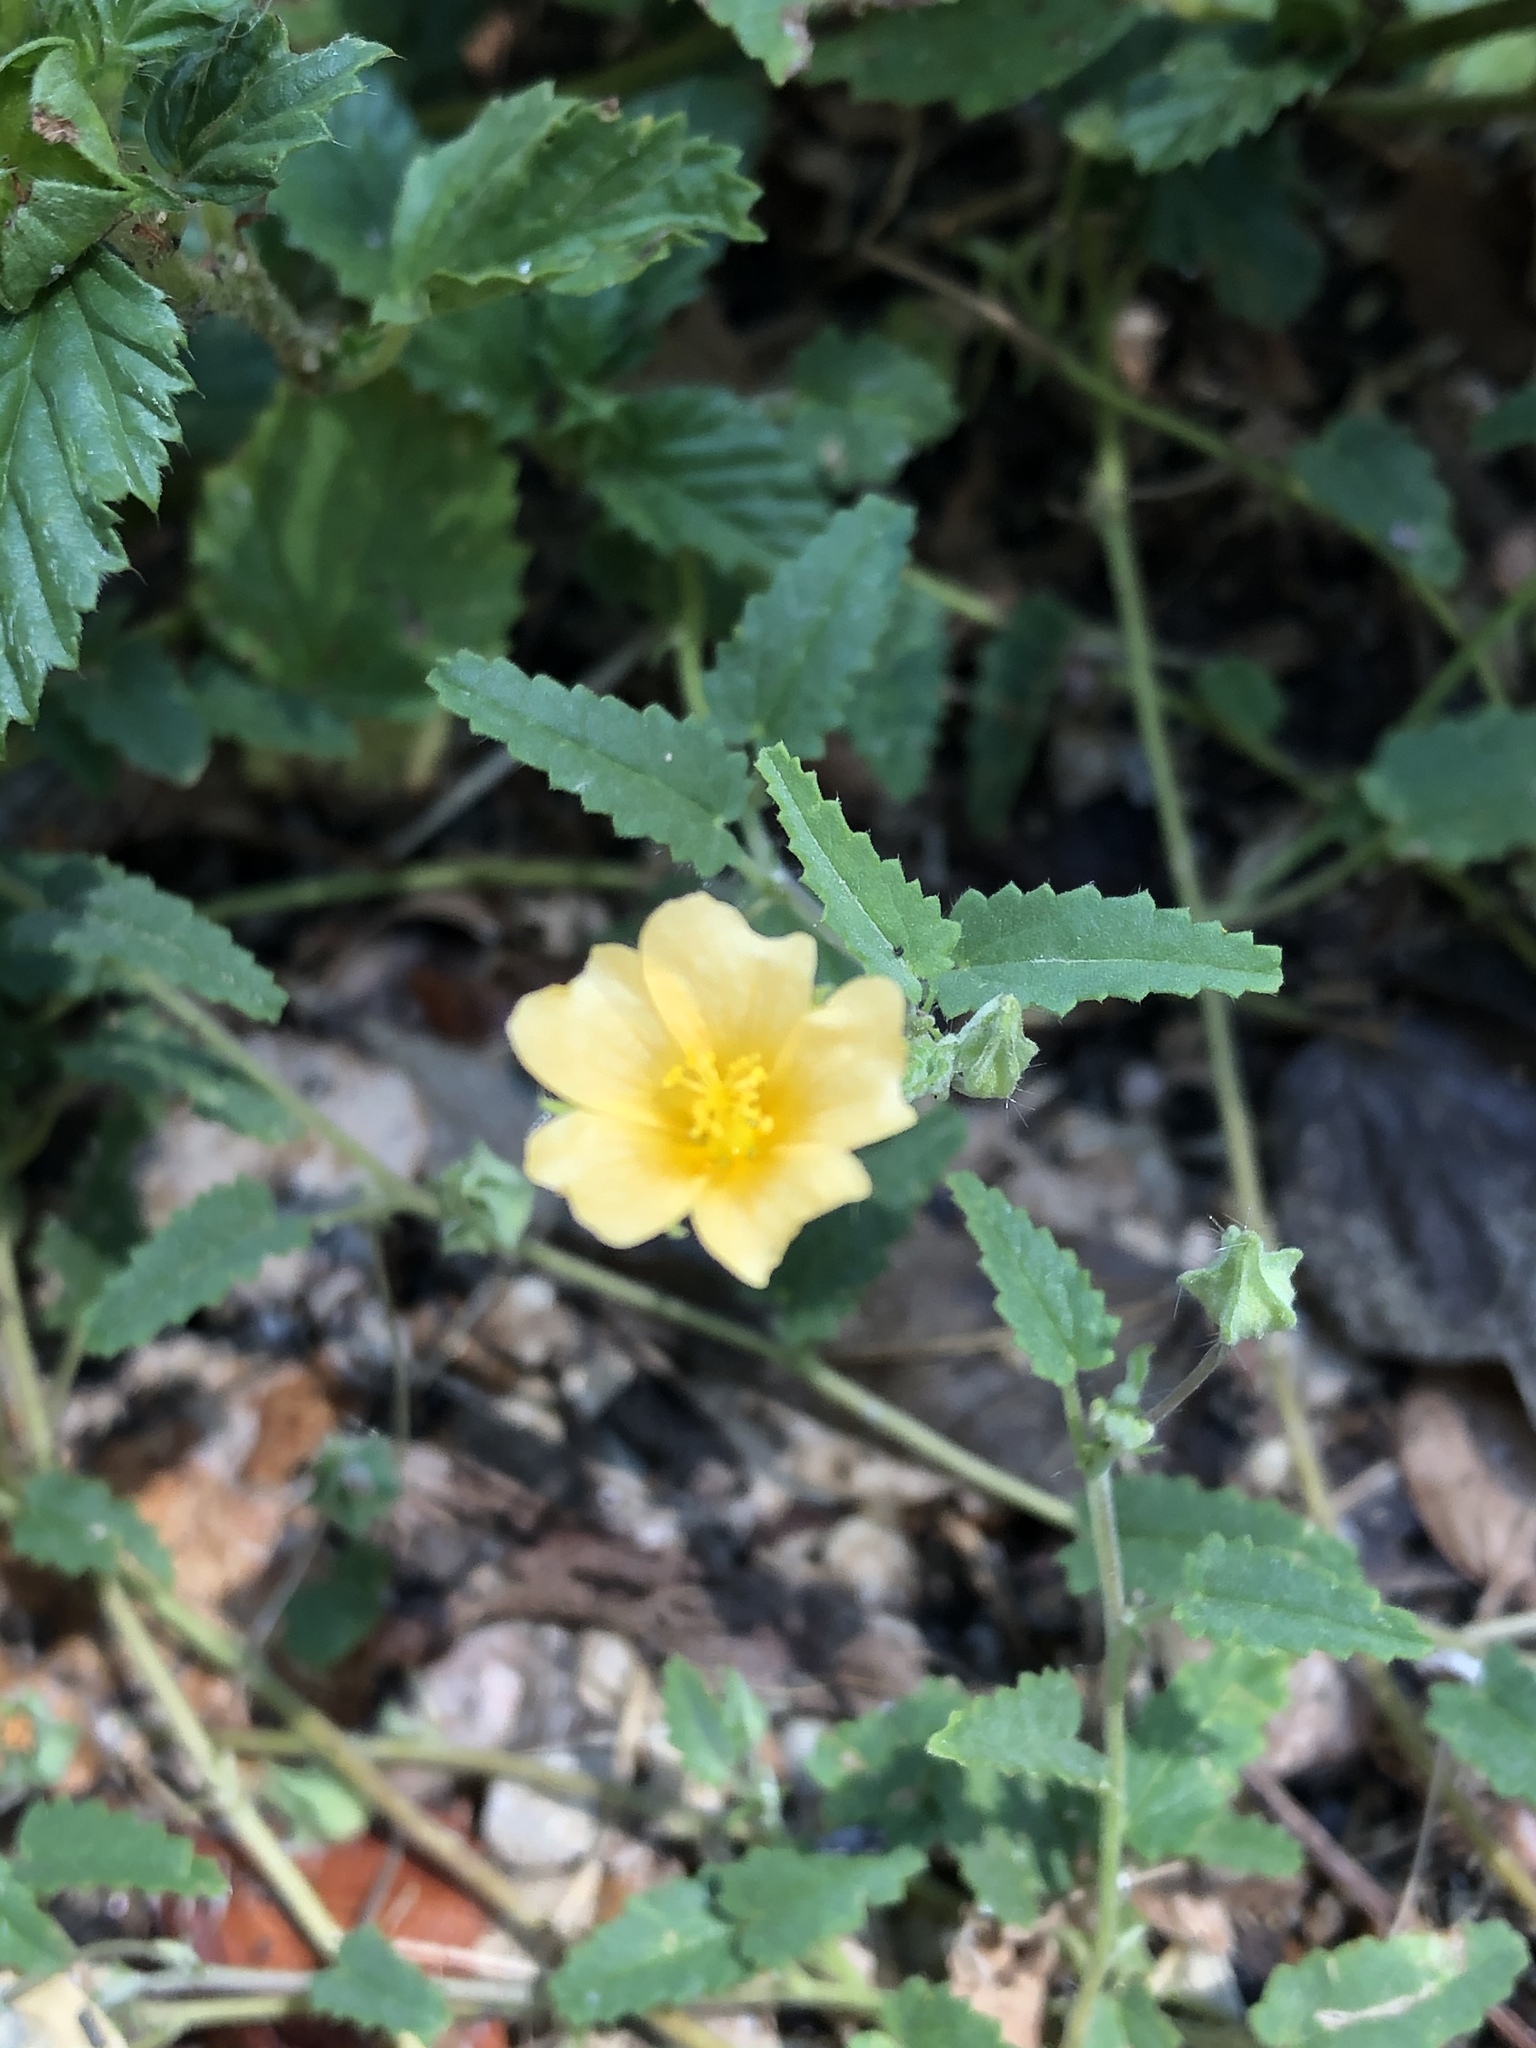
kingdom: Plantae
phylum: Tracheophyta
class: Magnoliopsida
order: Malvales
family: Malvaceae
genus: Sida
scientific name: Sida abutilifolia
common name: Spreading fanpetals
